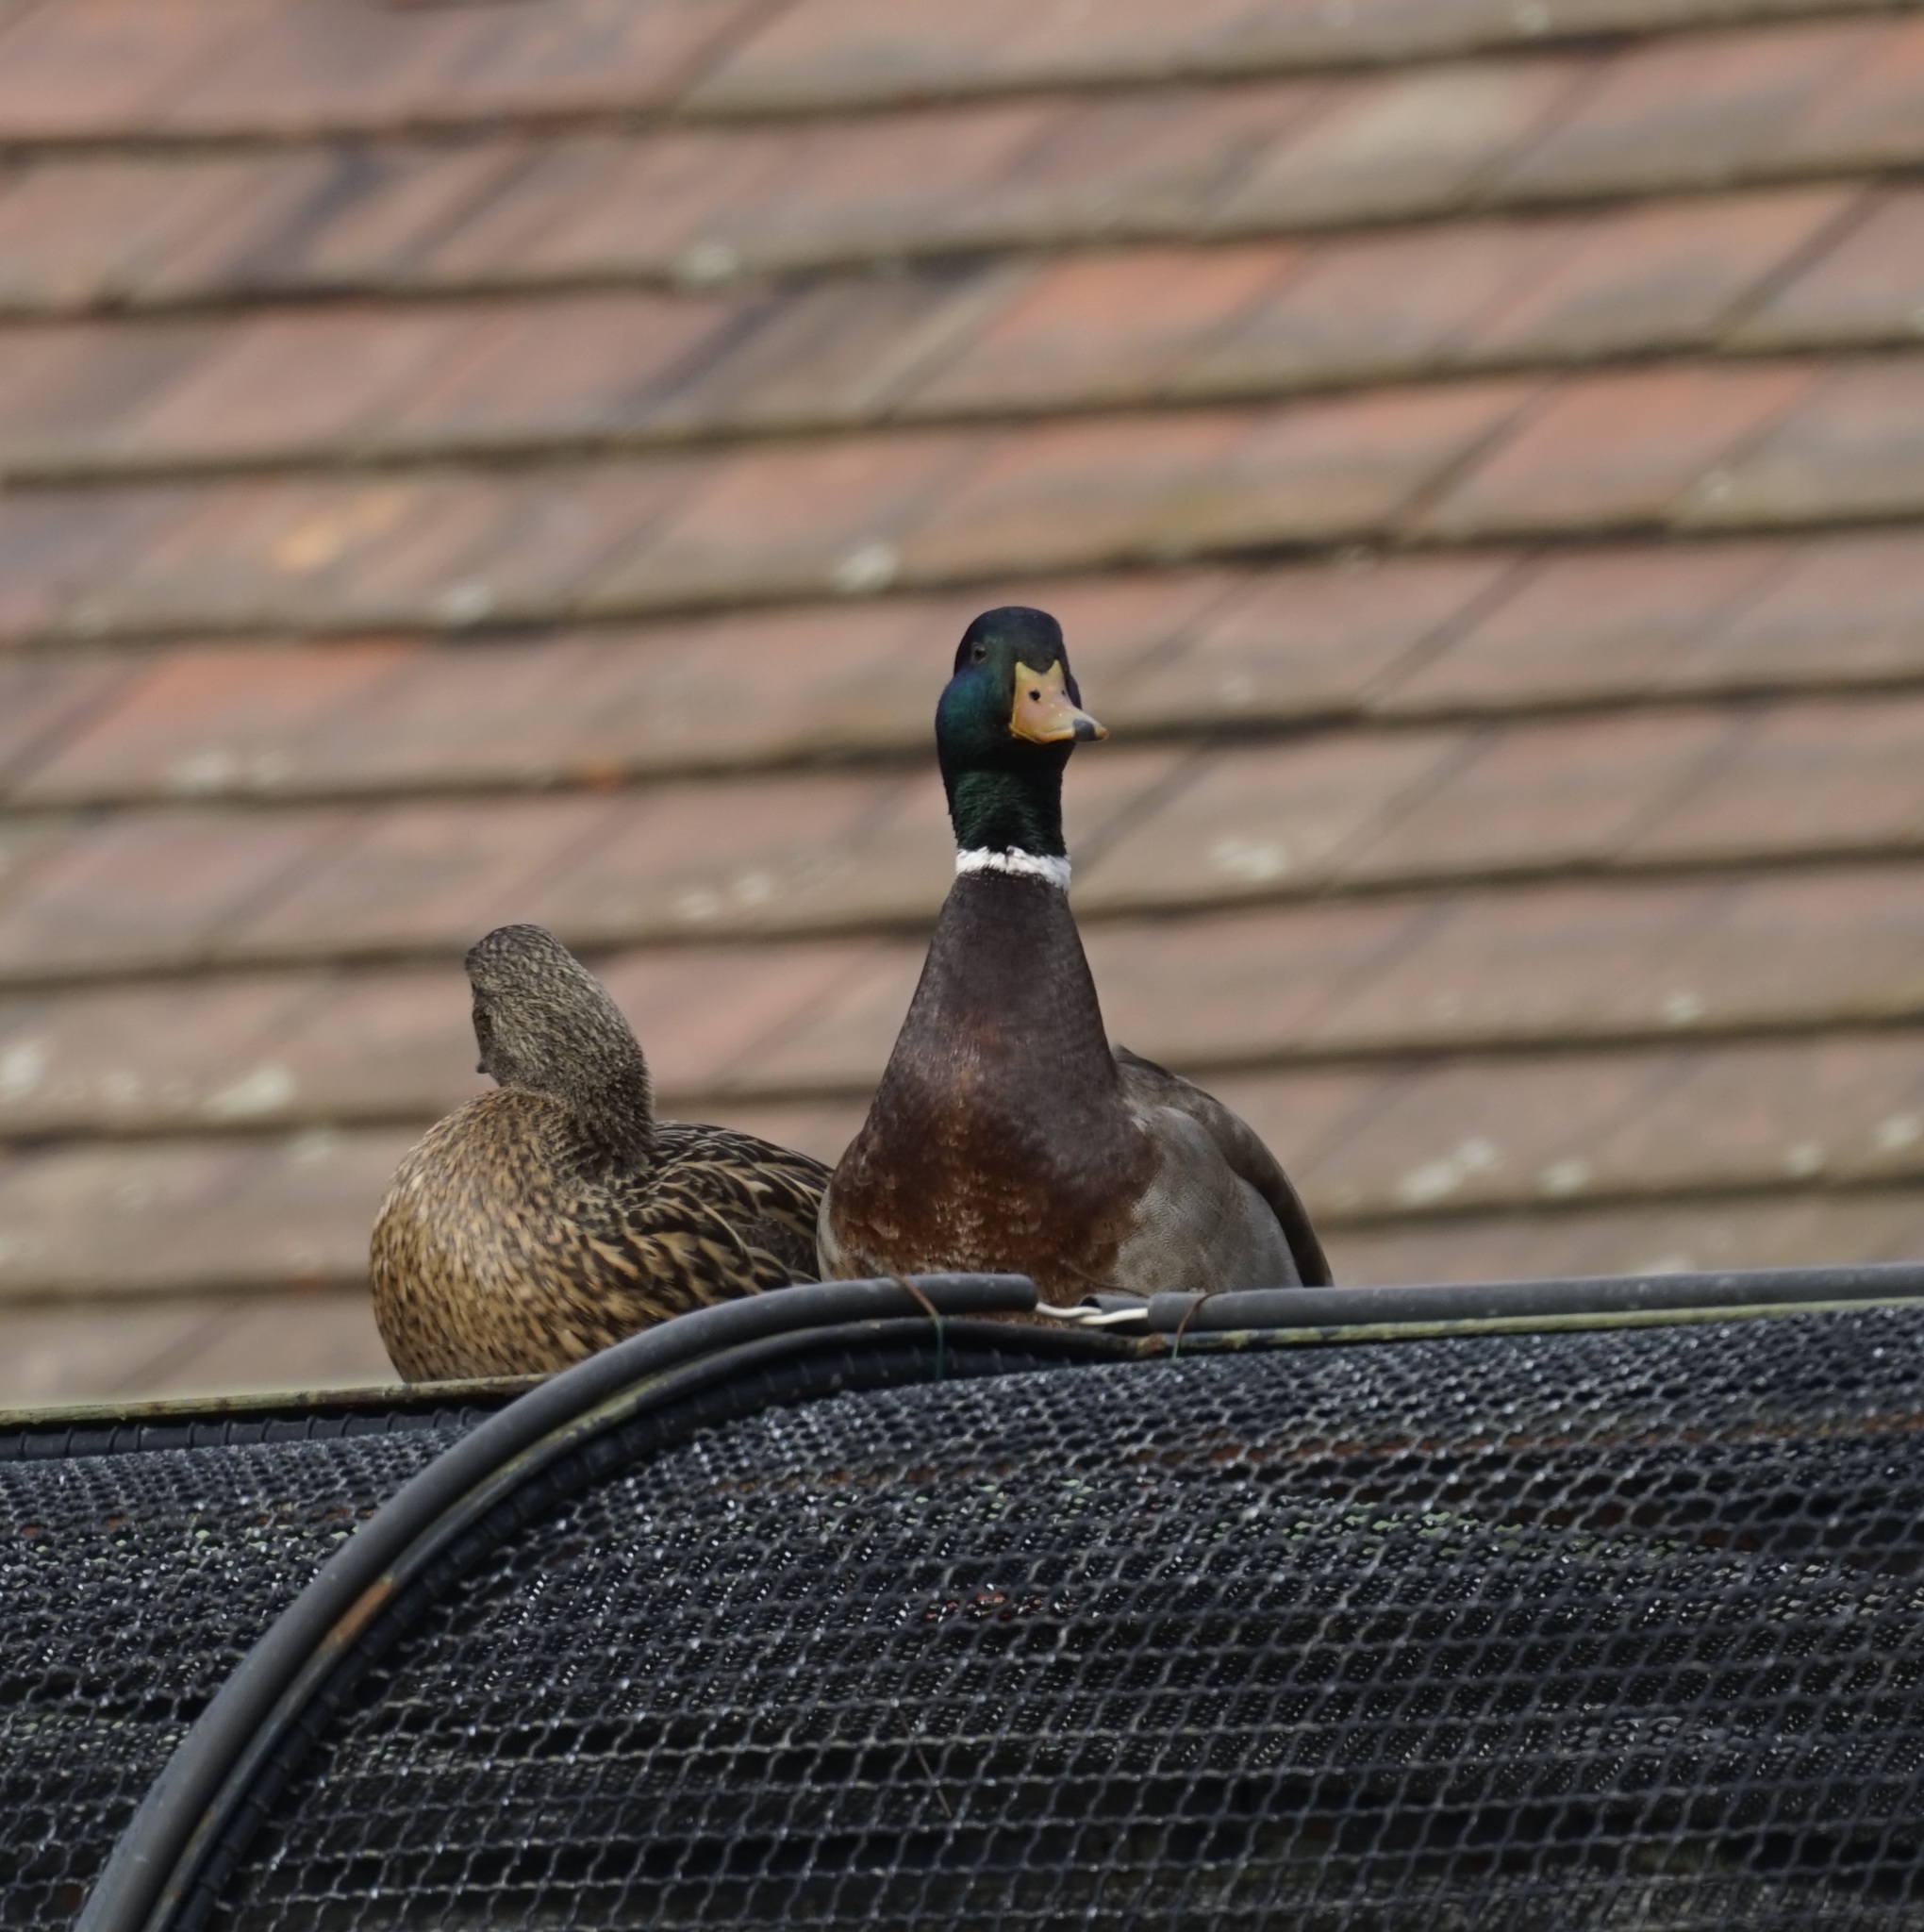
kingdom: Animalia
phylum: Chordata
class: Aves
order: Anseriformes
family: Anatidae
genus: Anas
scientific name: Anas platyrhynchos
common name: Mallard
